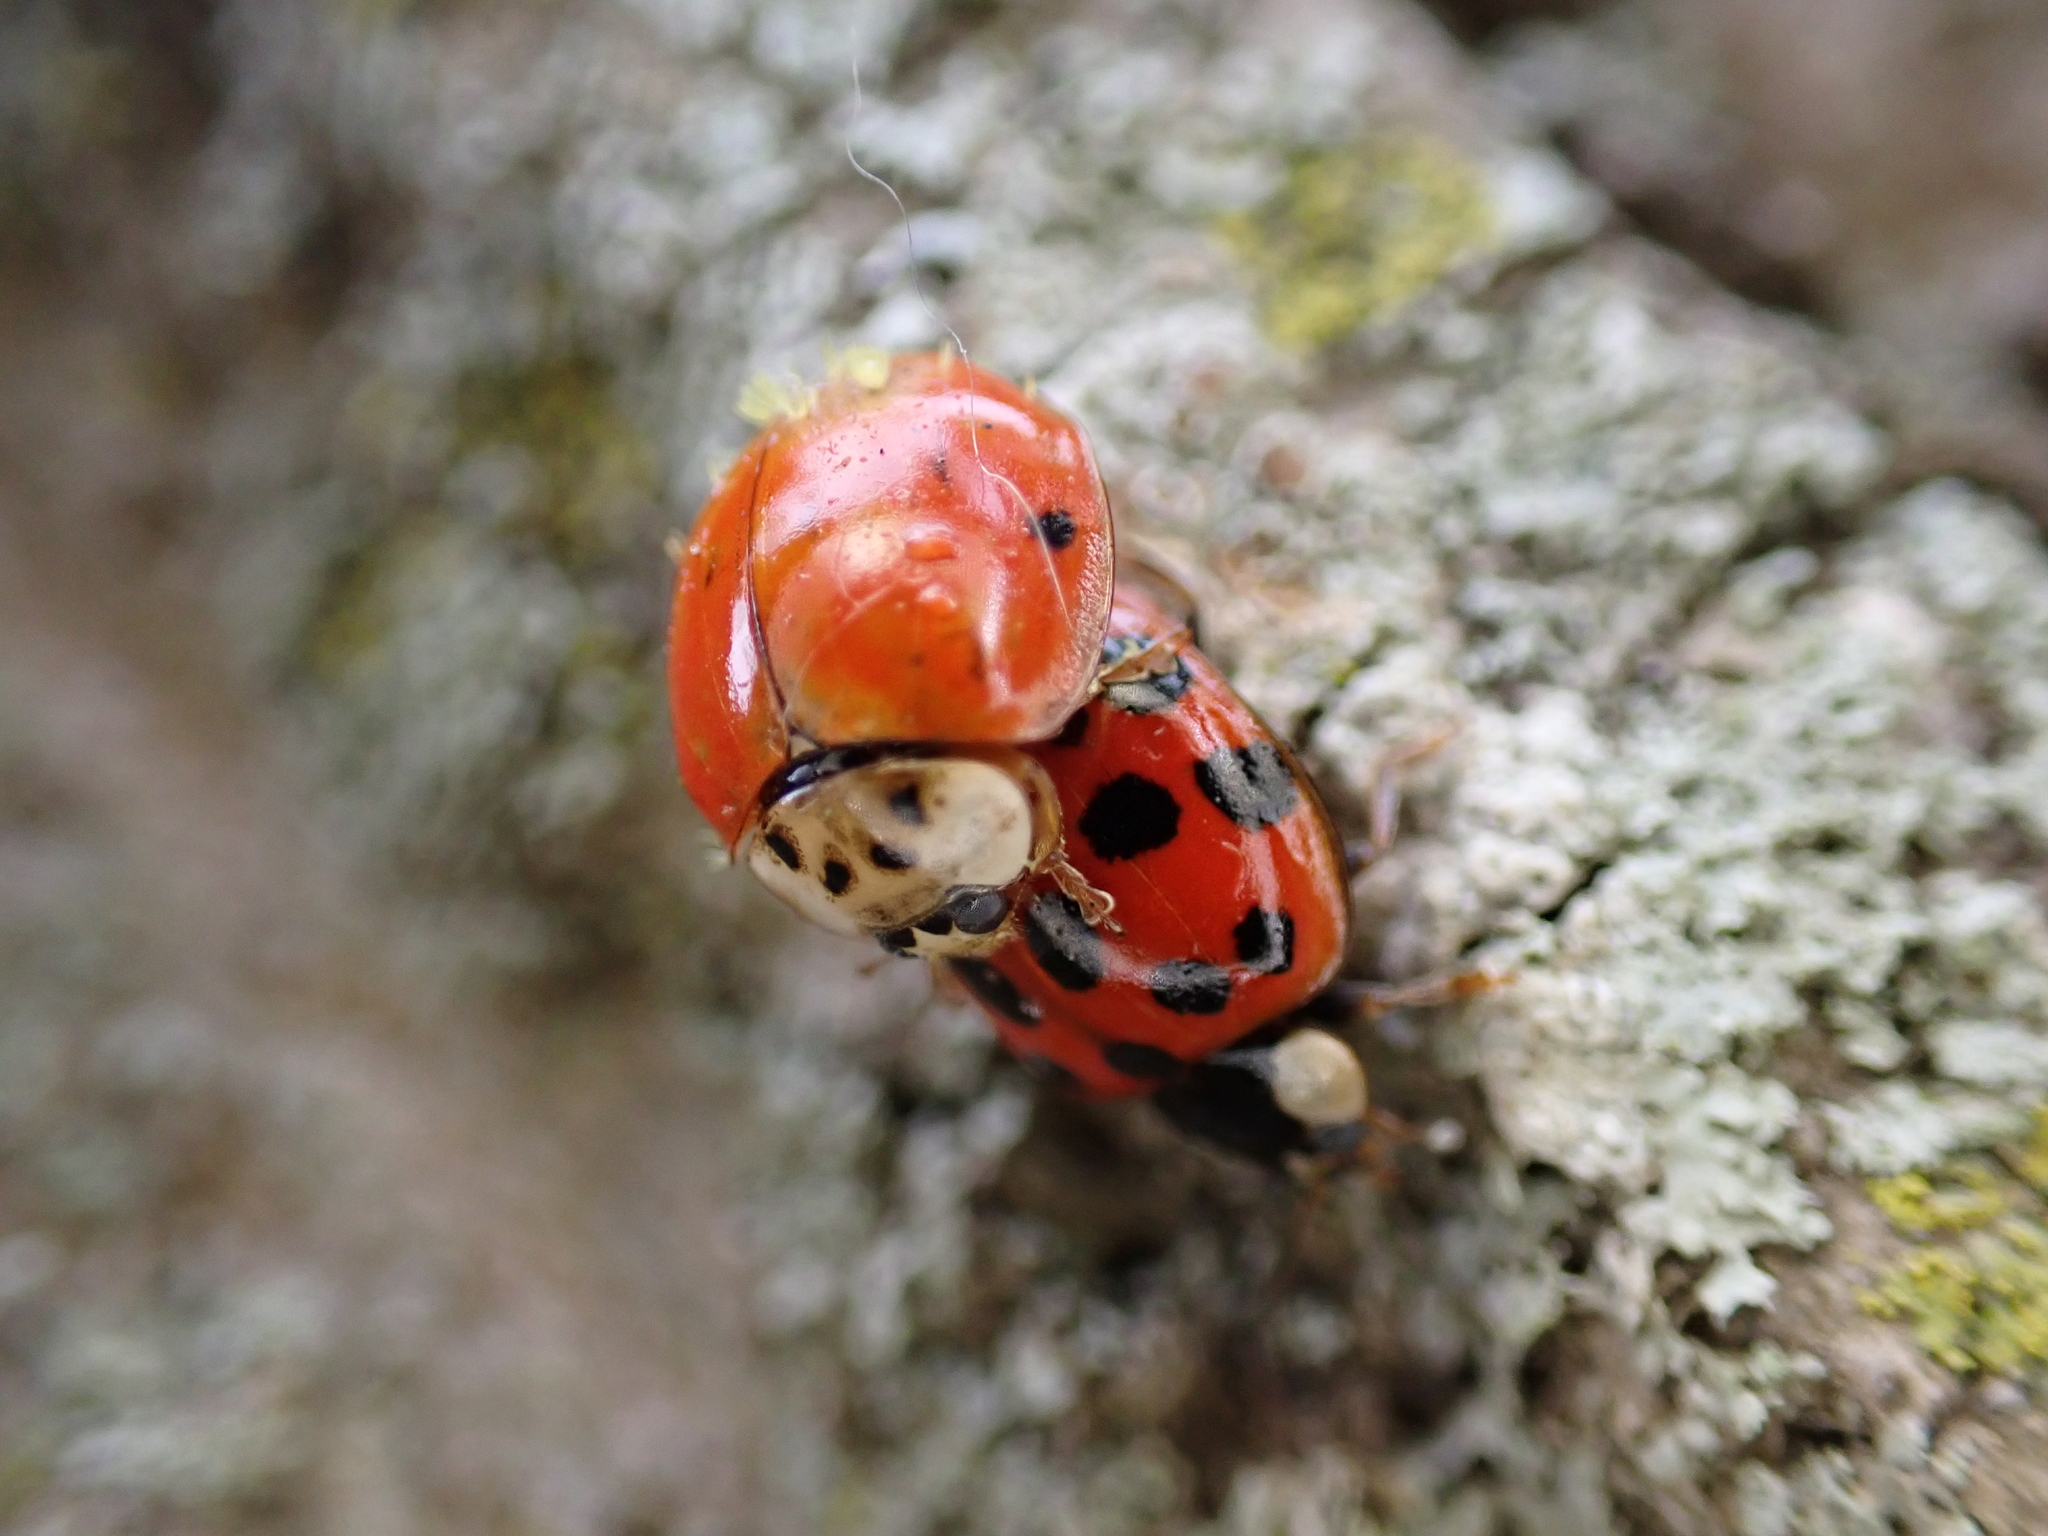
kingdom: Animalia
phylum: Arthropoda
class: Insecta
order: Coleoptera
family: Coccinellidae
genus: Harmonia
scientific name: Harmonia axyridis
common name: Harlequin ladybird
